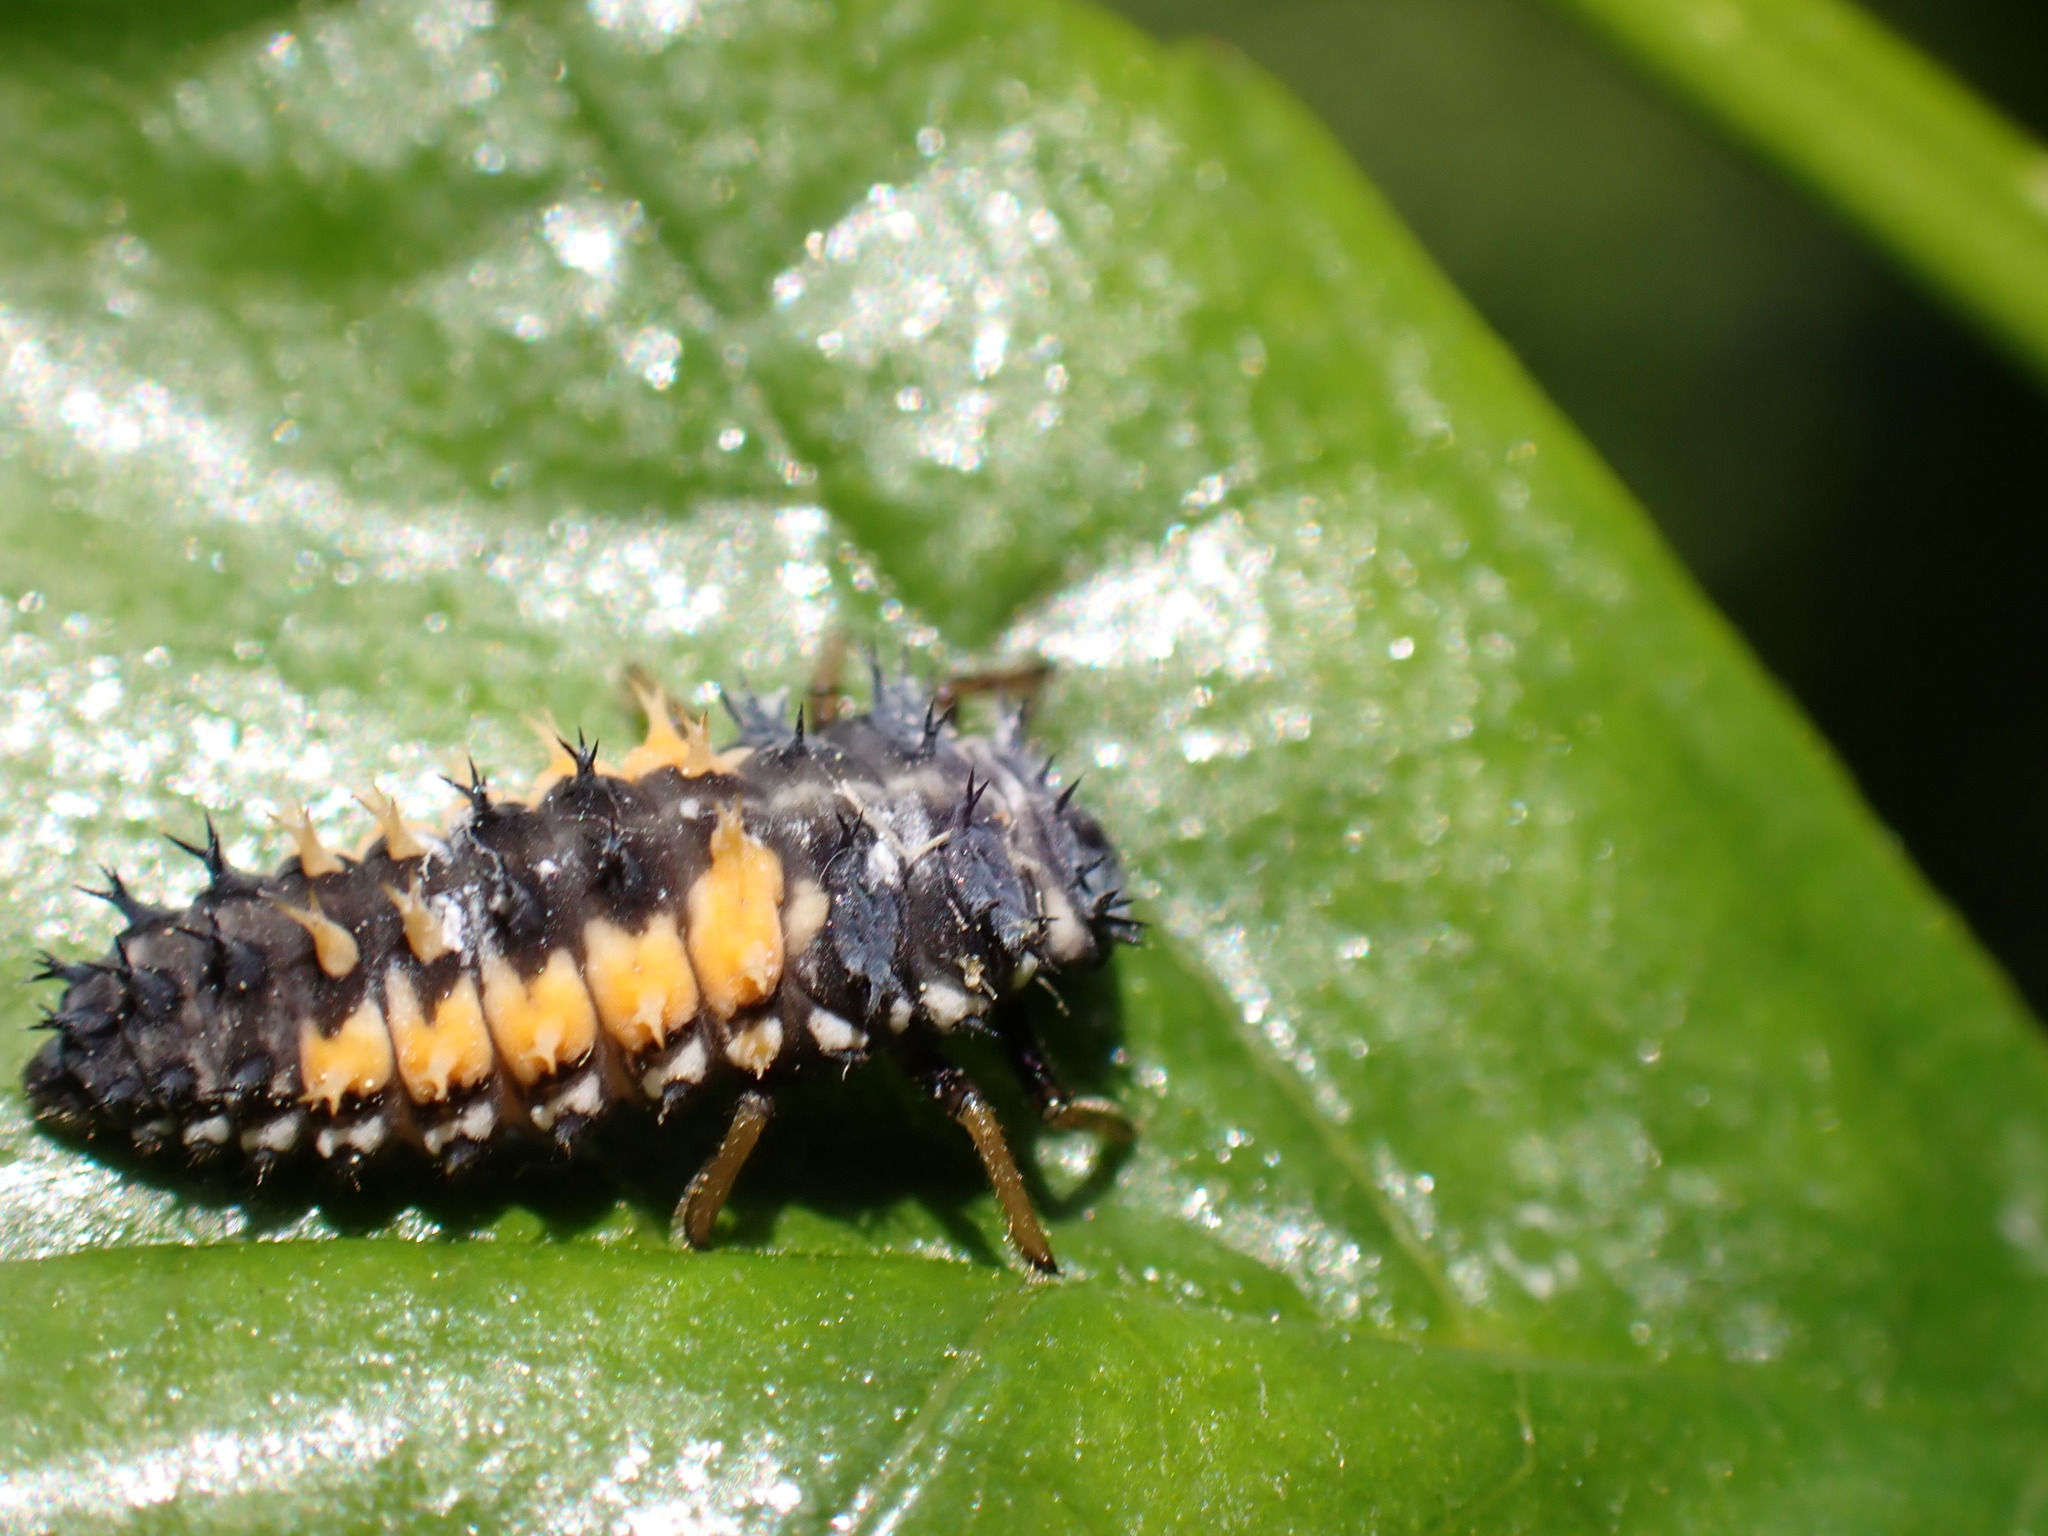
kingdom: Animalia
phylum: Arthropoda
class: Insecta
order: Coleoptera
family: Coccinellidae
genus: Harmonia
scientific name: Harmonia axyridis
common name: Harlequin ladybird
